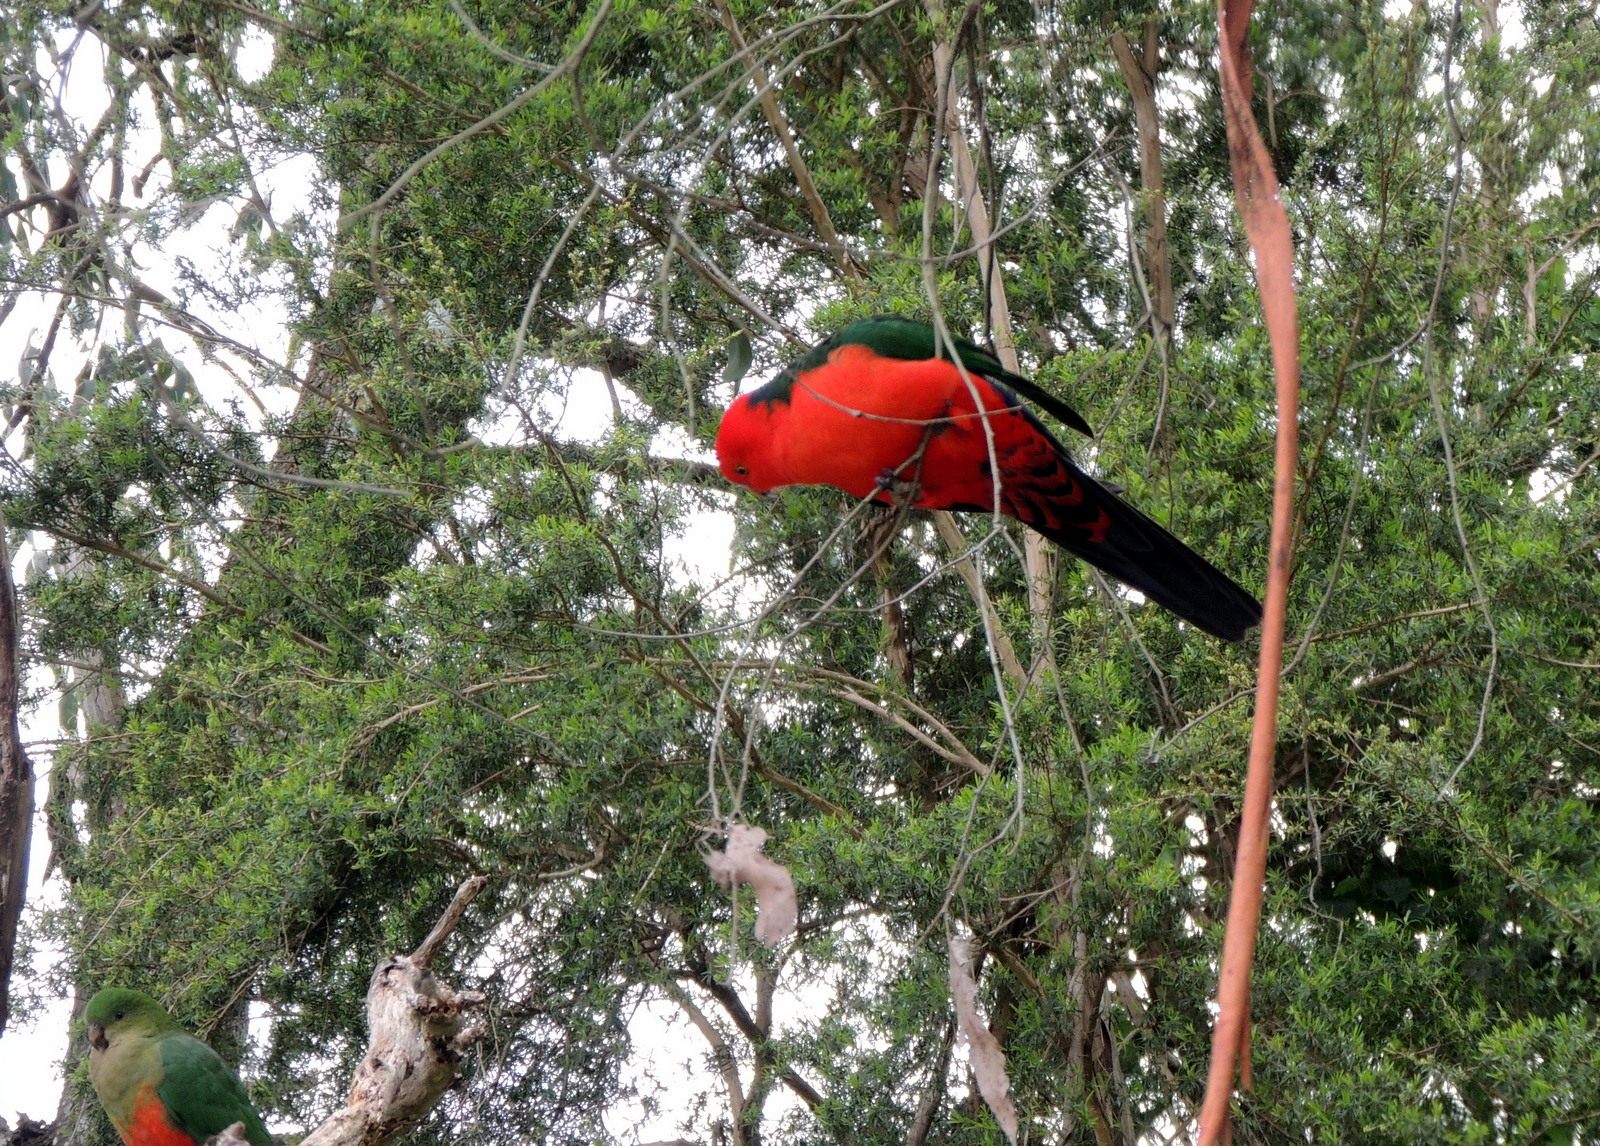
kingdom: Animalia
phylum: Chordata
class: Aves
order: Psittaciformes
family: Psittacidae
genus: Alisterus
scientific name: Alisterus scapularis
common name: Australian king parrot
